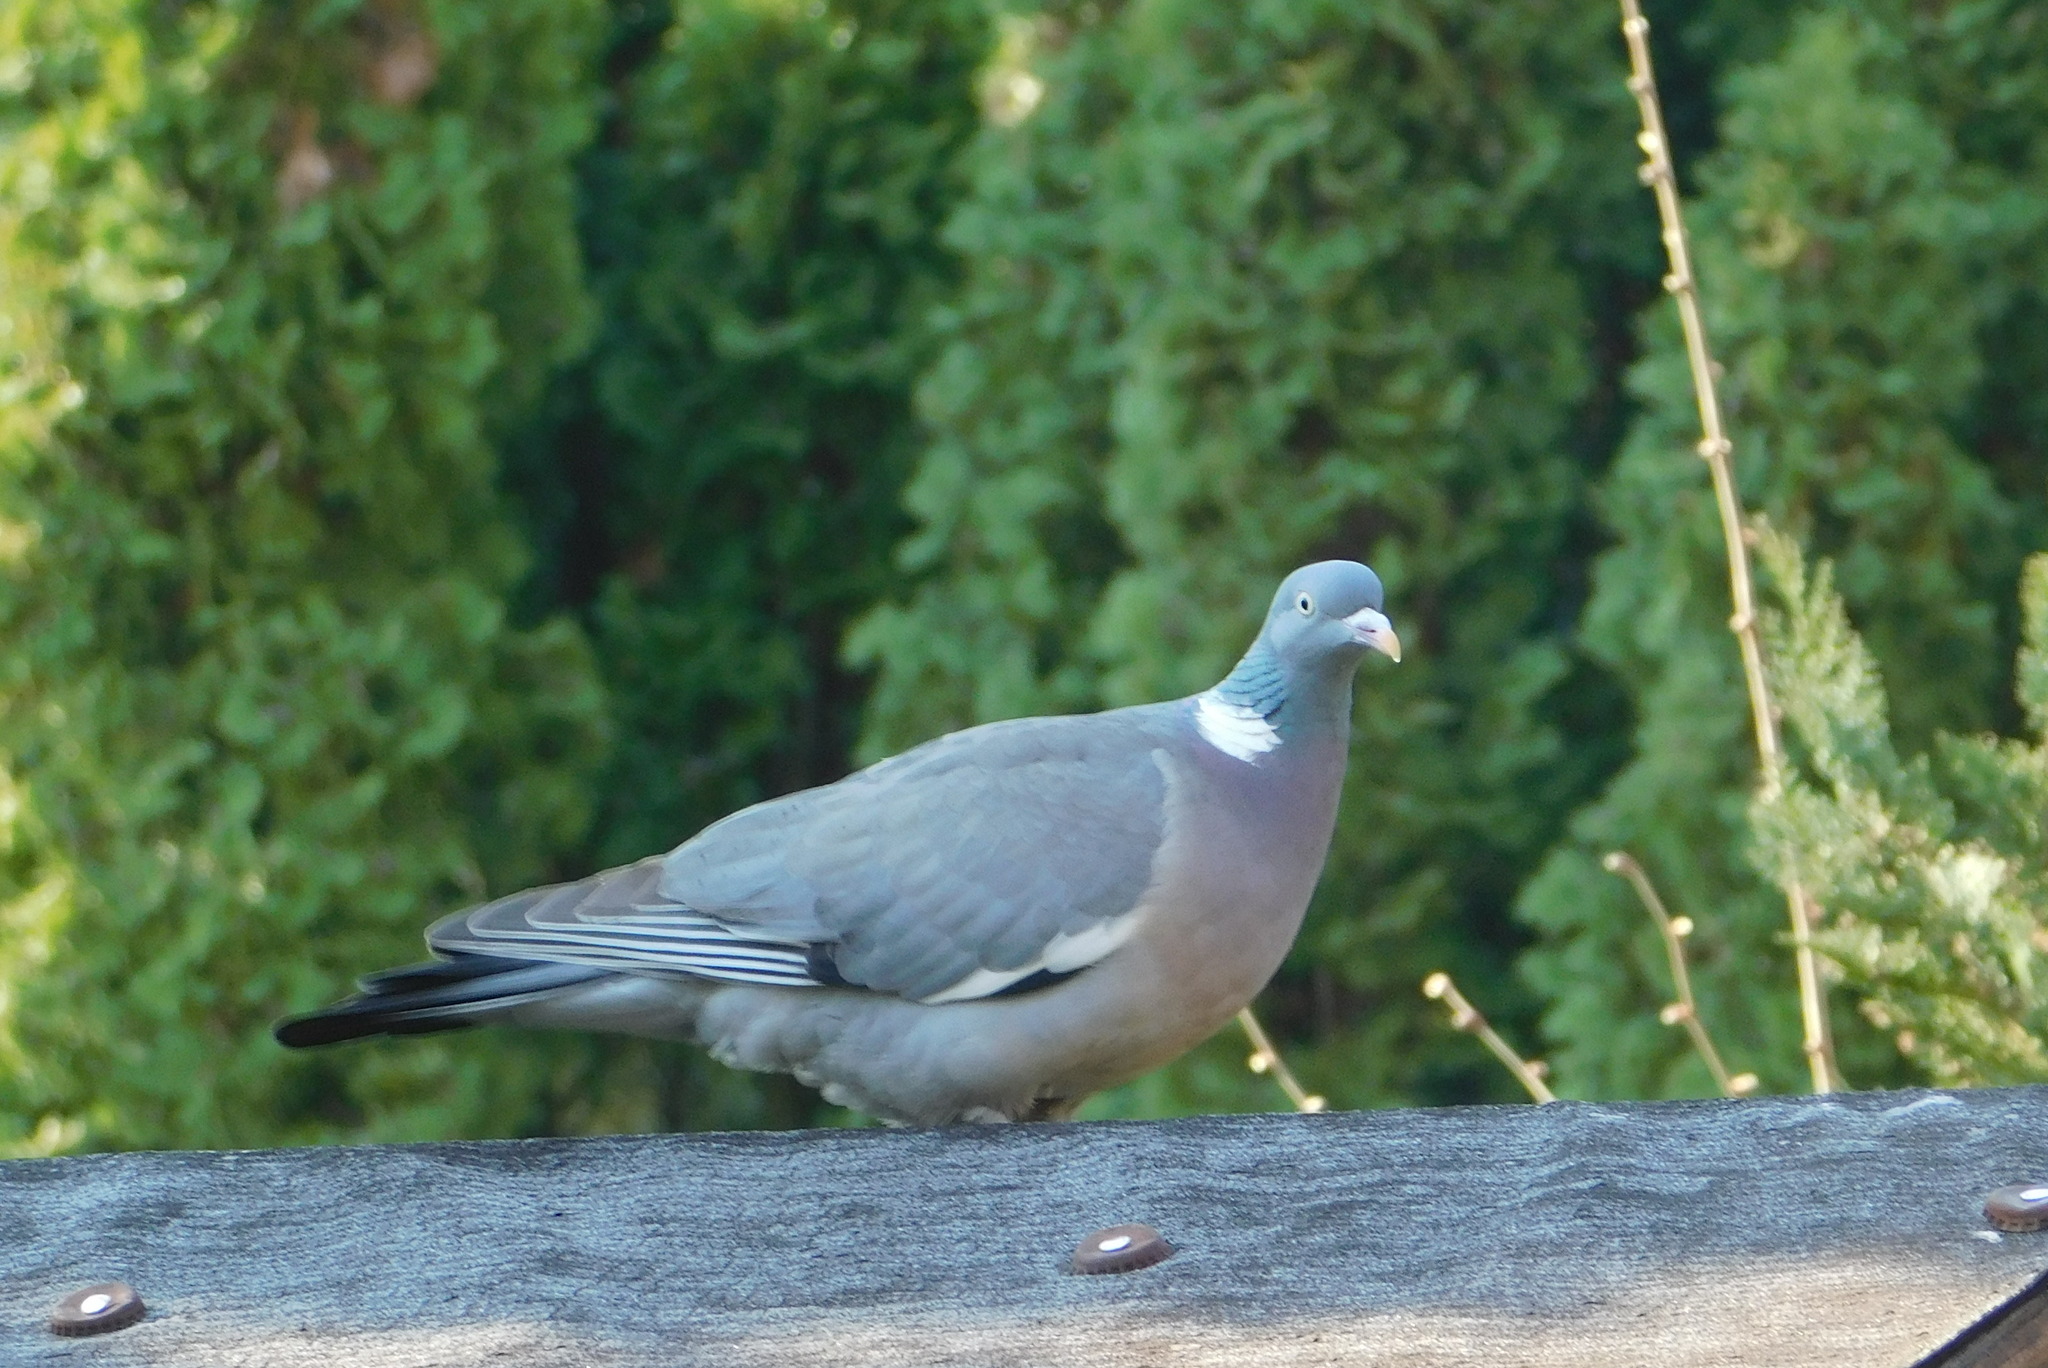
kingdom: Animalia
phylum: Chordata
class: Aves
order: Columbiformes
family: Columbidae
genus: Columba
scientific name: Columba palumbus
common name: Common wood pigeon
